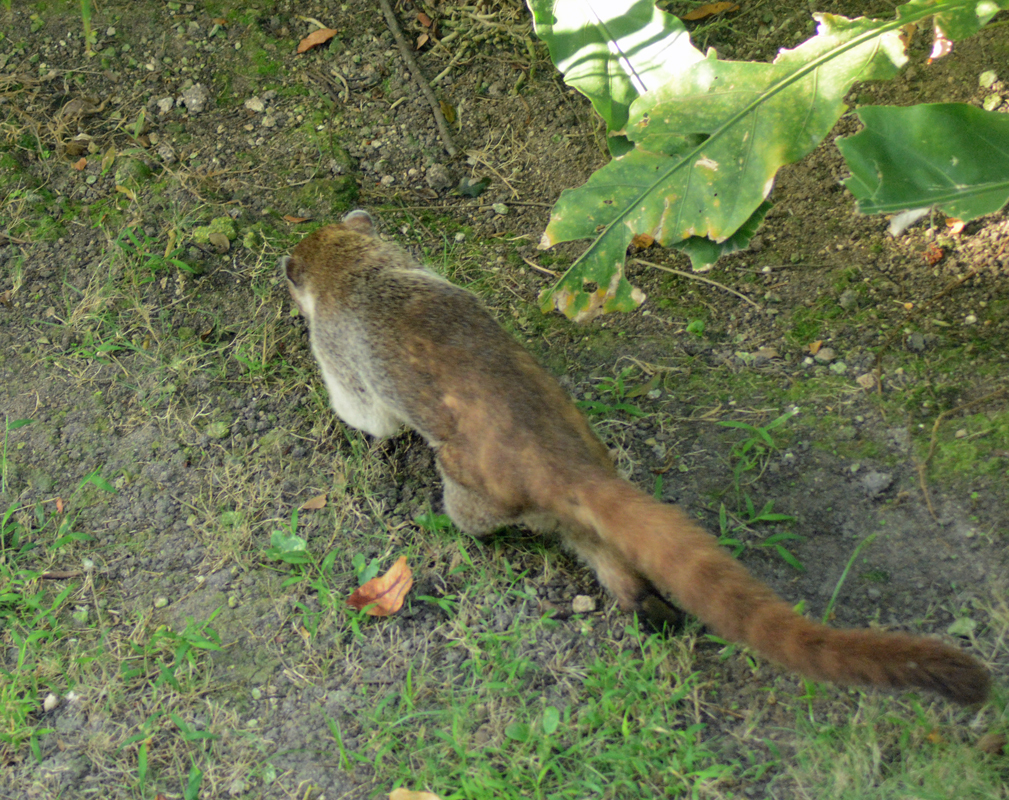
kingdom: Animalia
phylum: Chordata
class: Mammalia
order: Carnivora
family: Procyonidae
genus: Nasua
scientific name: Nasua narica
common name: White-nosed coati
